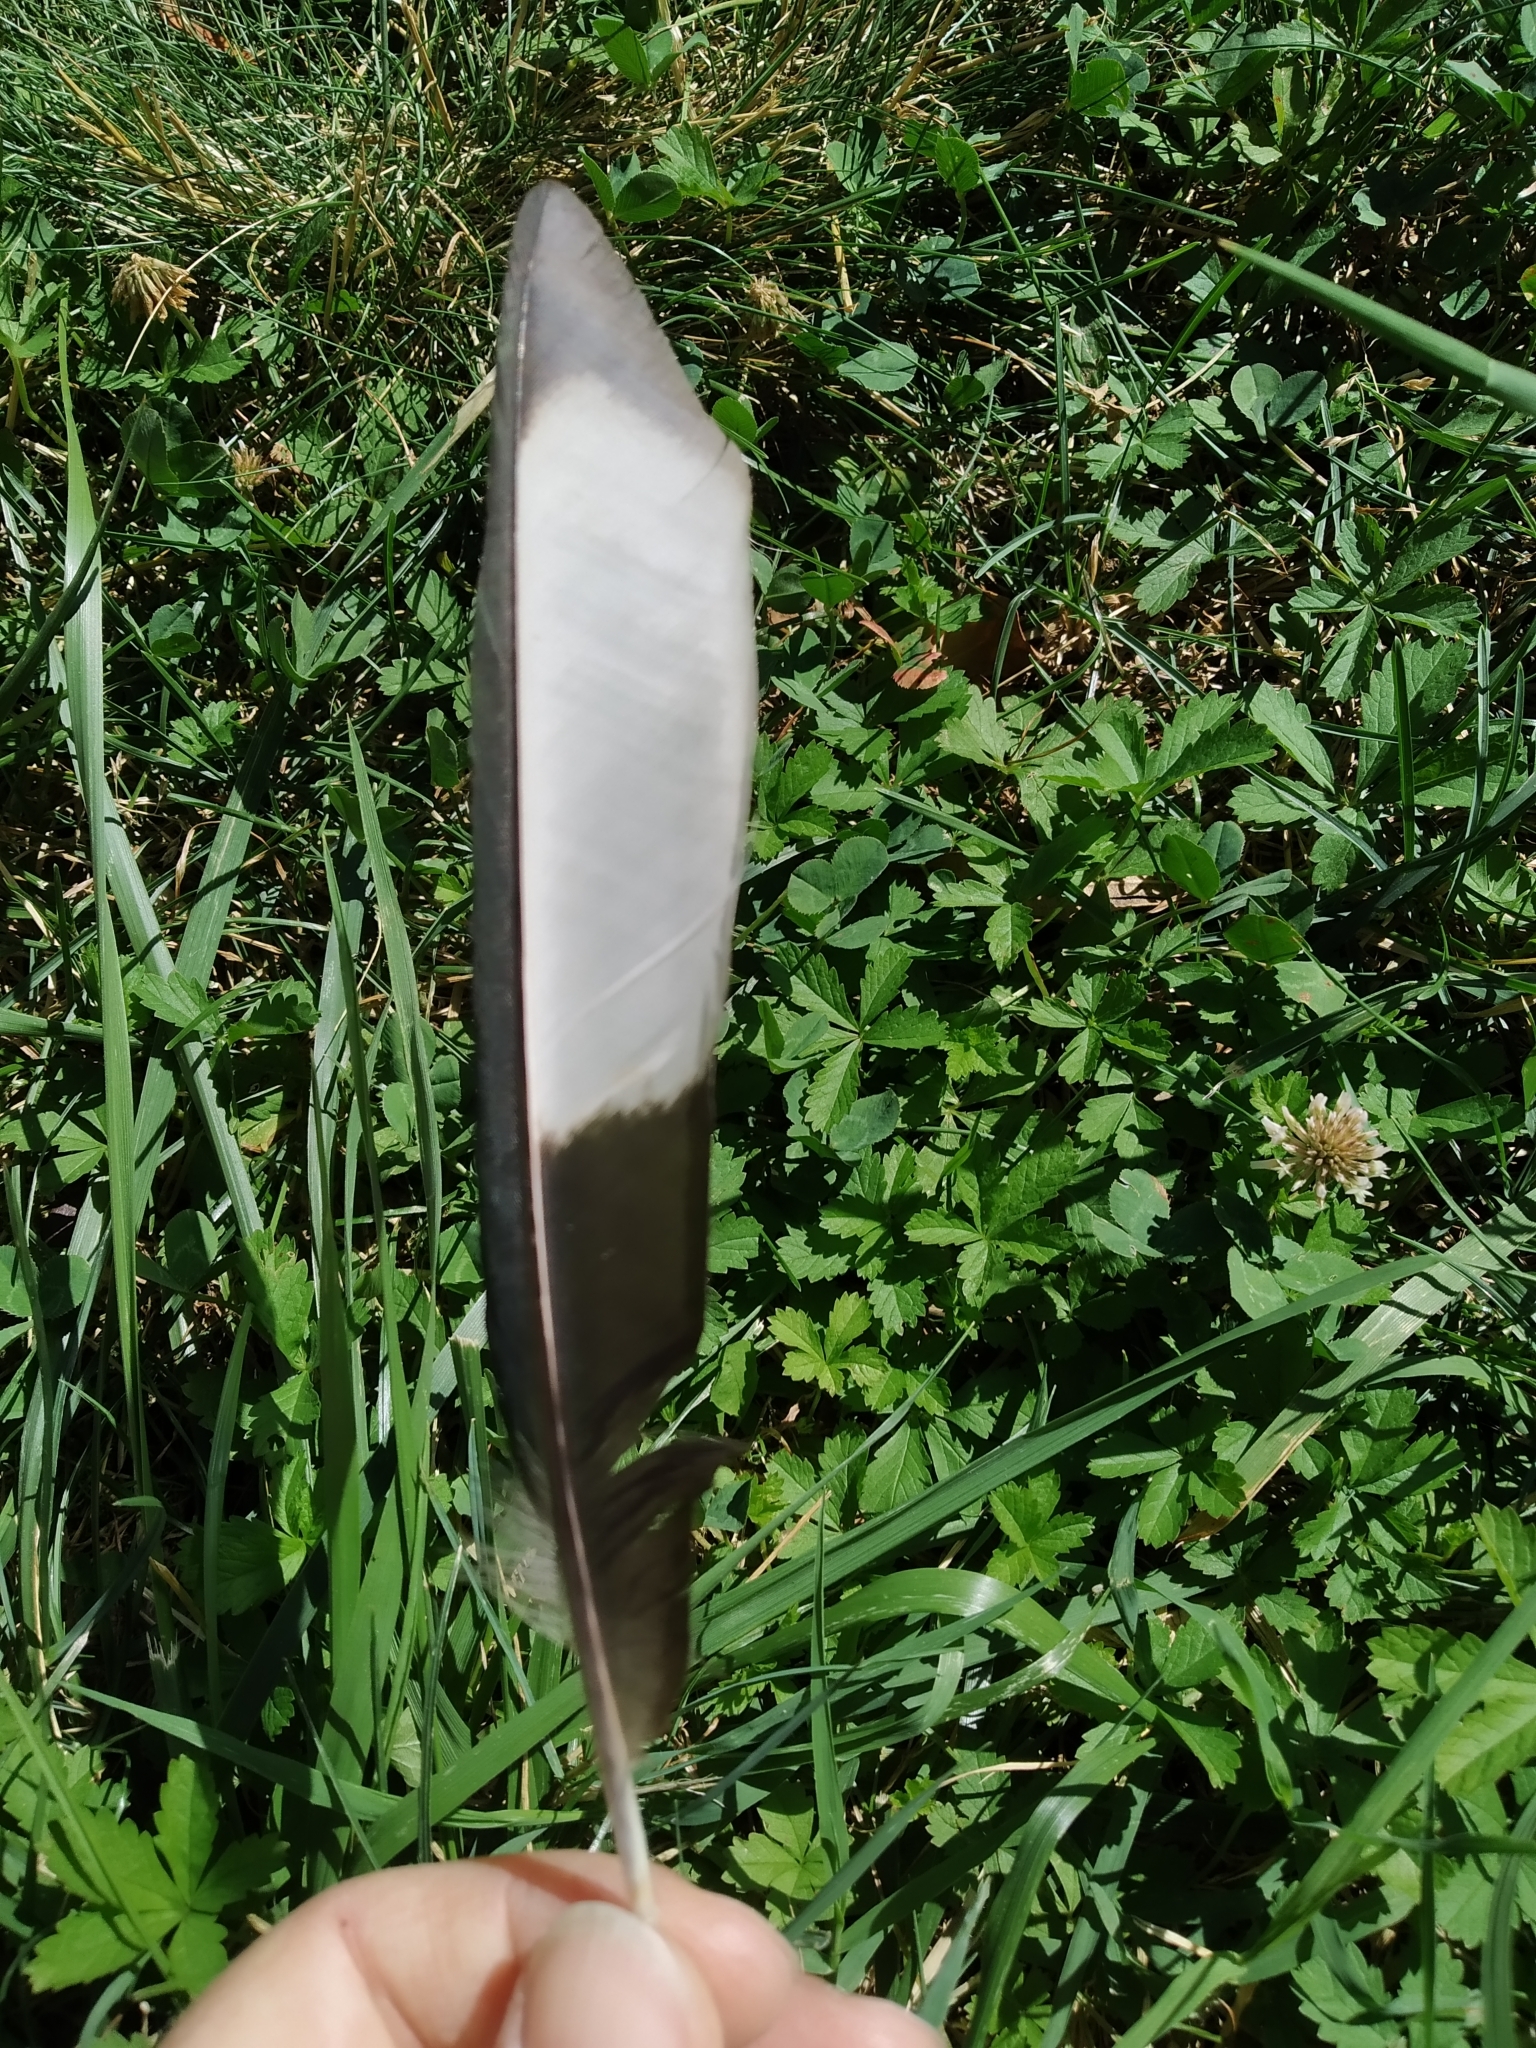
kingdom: Animalia
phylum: Chordata
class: Aves
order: Passeriformes
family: Corvidae
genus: Pica
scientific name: Pica pica
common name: Eurasian magpie
